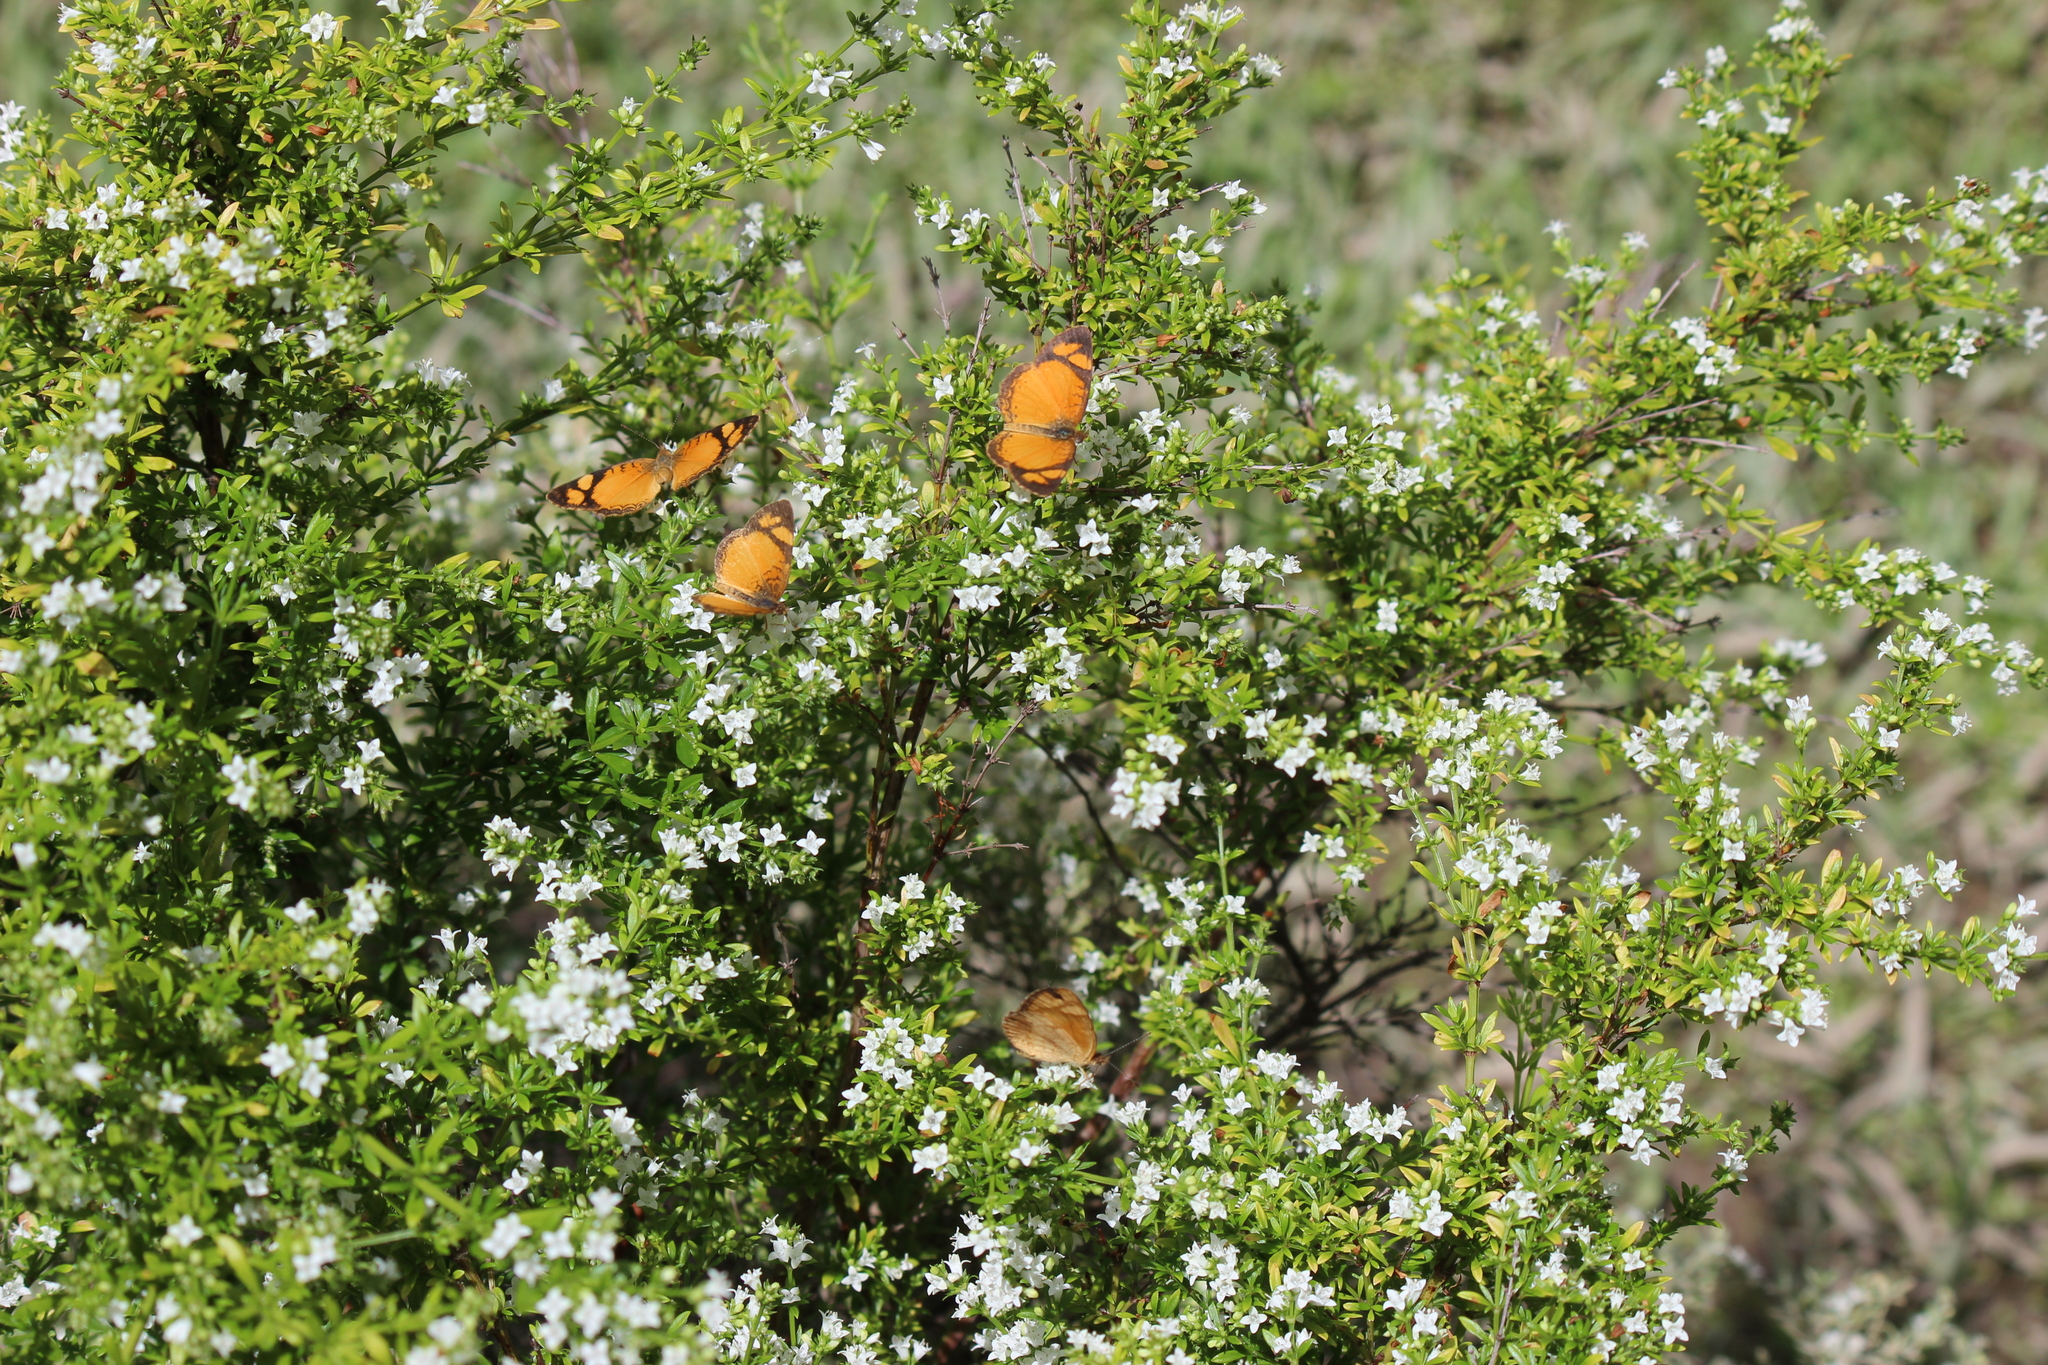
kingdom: Animalia
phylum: Arthropoda
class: Insecta
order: Lepidoptera
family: Nymphalidae
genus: Tegosa
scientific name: Tegosa claudina
